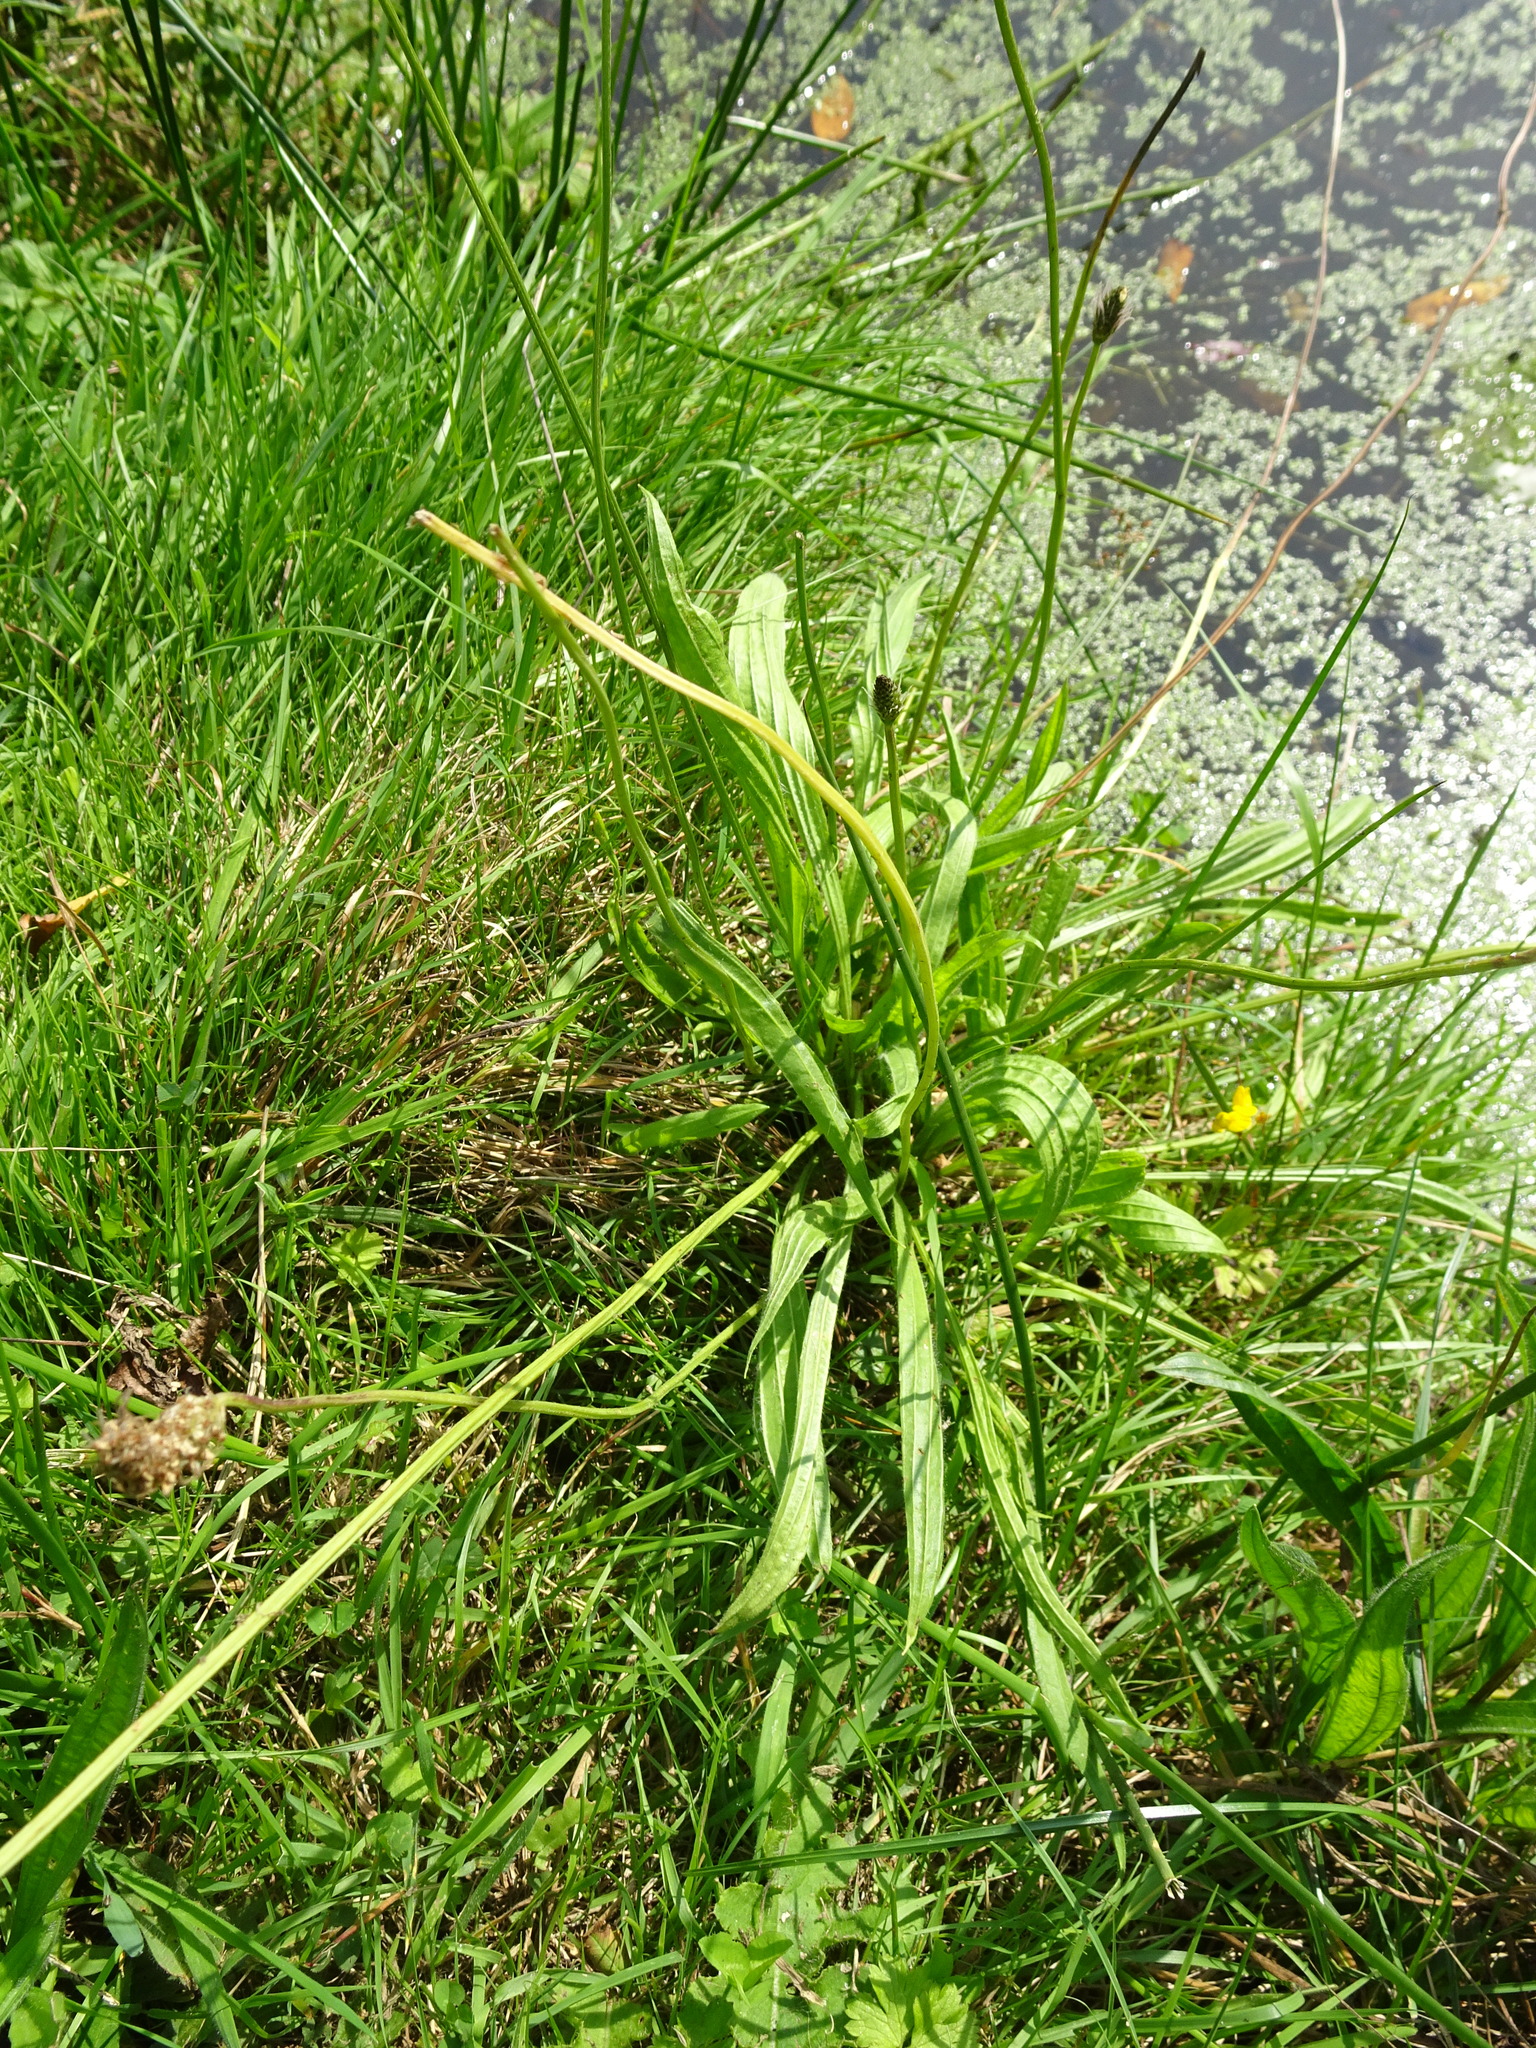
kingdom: Plantae
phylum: Tracheophyta
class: Magnoliopsida
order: Lamiales
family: Plantaginaceae
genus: Plantago
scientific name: Plantago lanceolata
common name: Ribwort plantain
